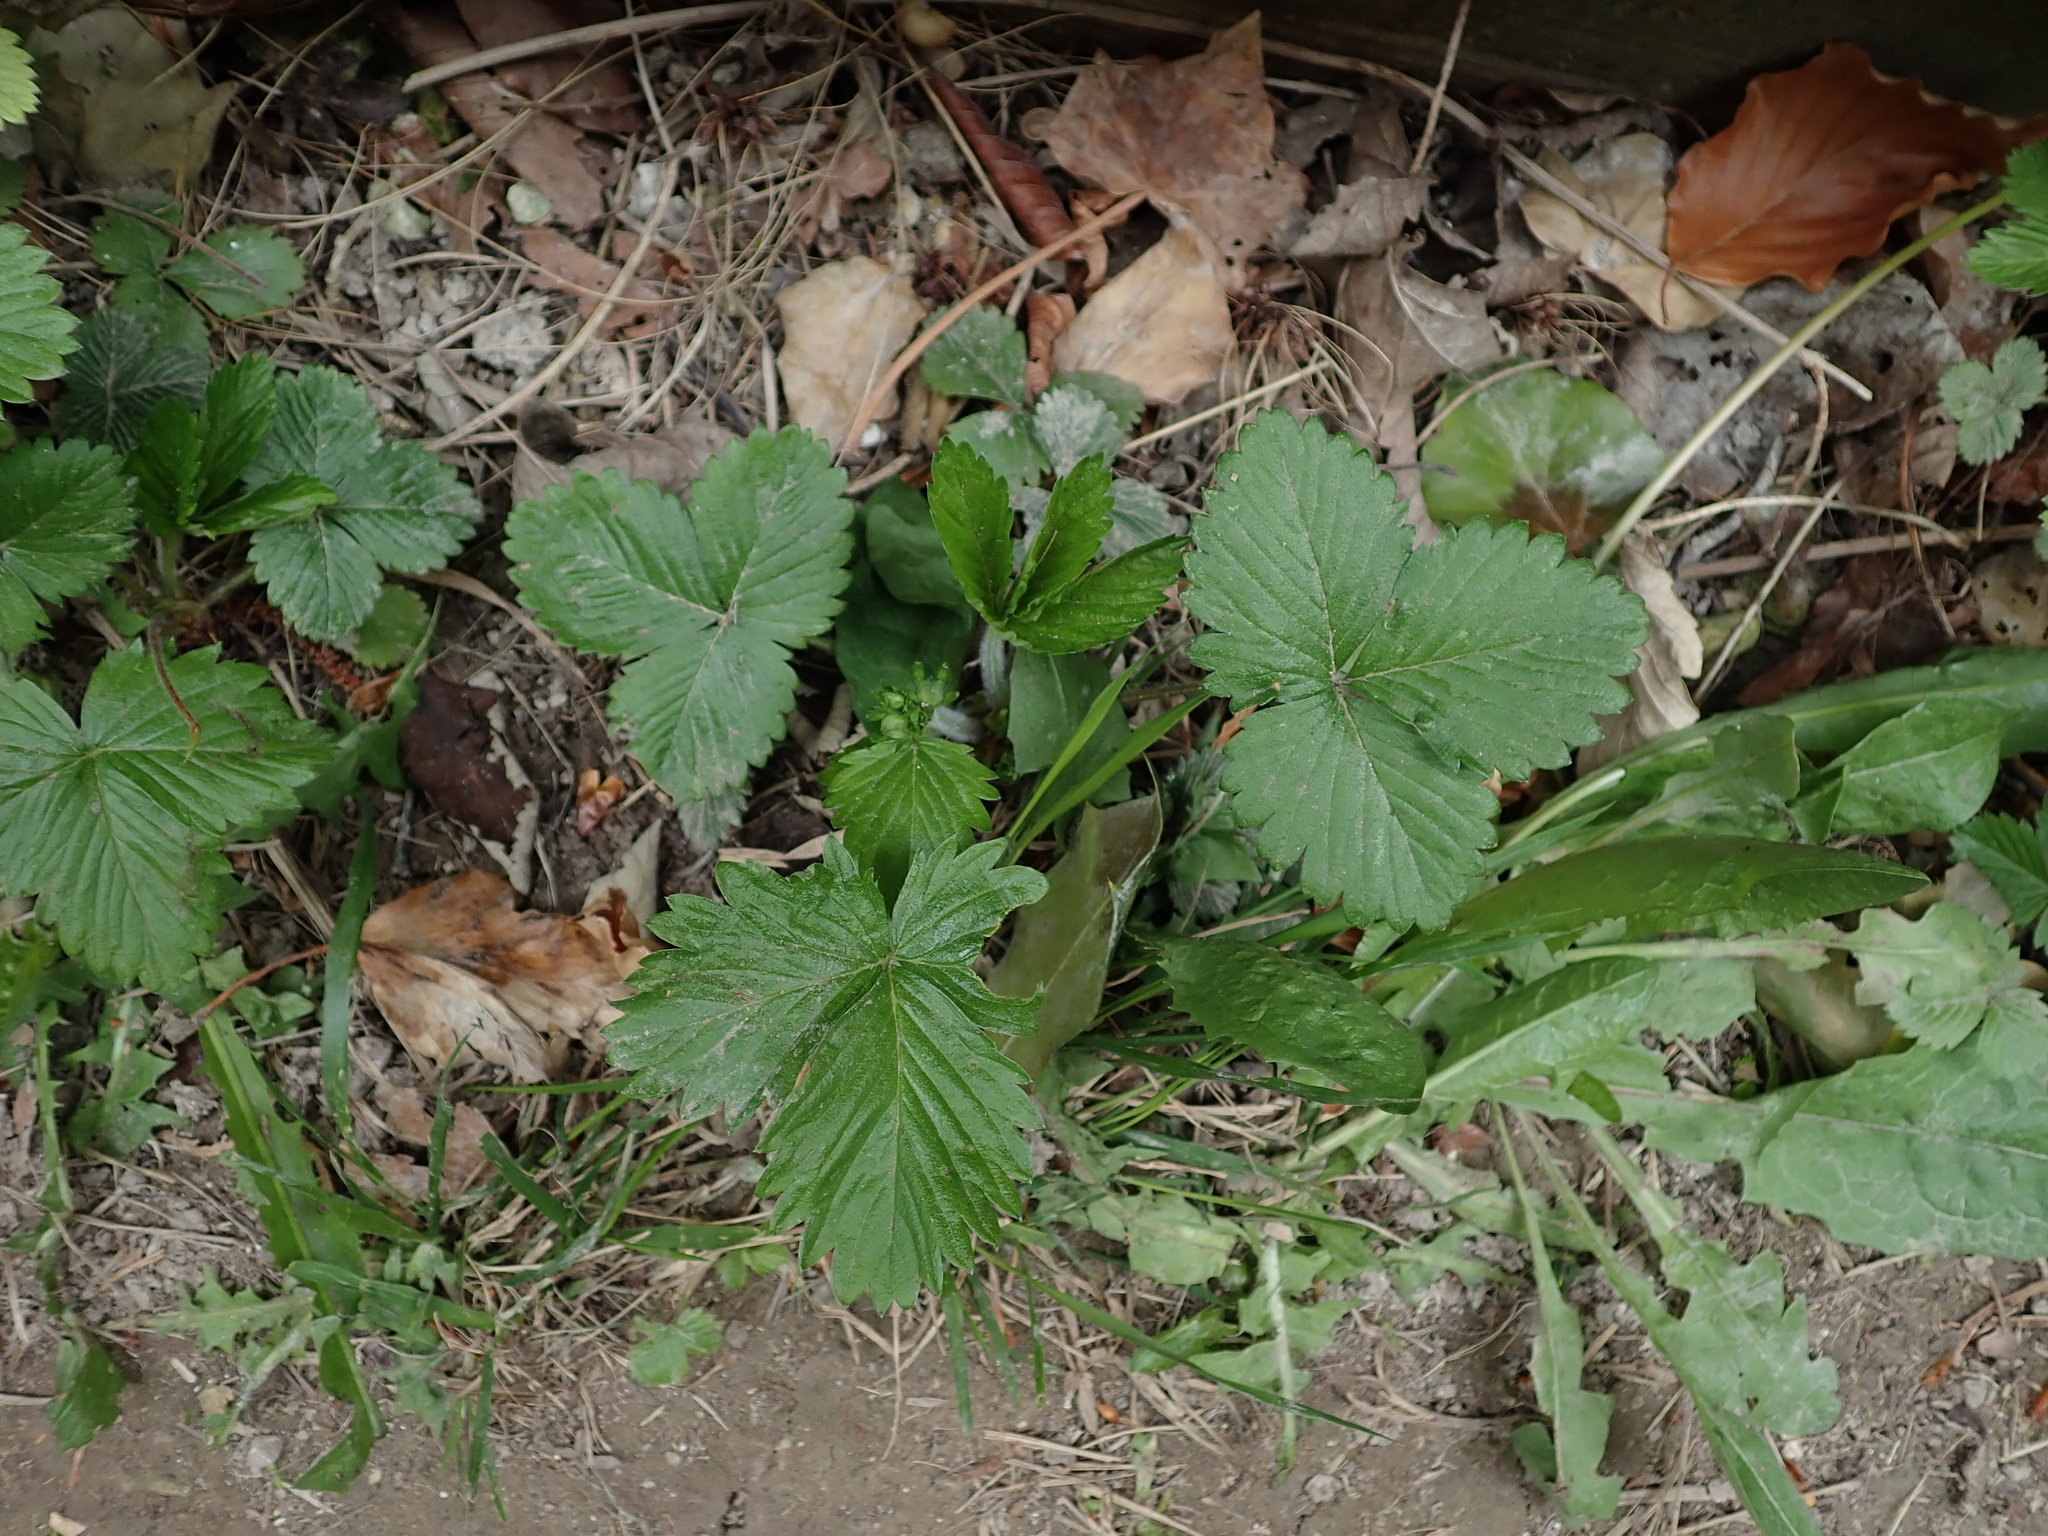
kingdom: Plantae
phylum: Tracheophyta
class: Magnoliopsida
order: Rosales
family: Rosaceae
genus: Fragaria
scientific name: Fragaria vesca
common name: Wild strawberry
